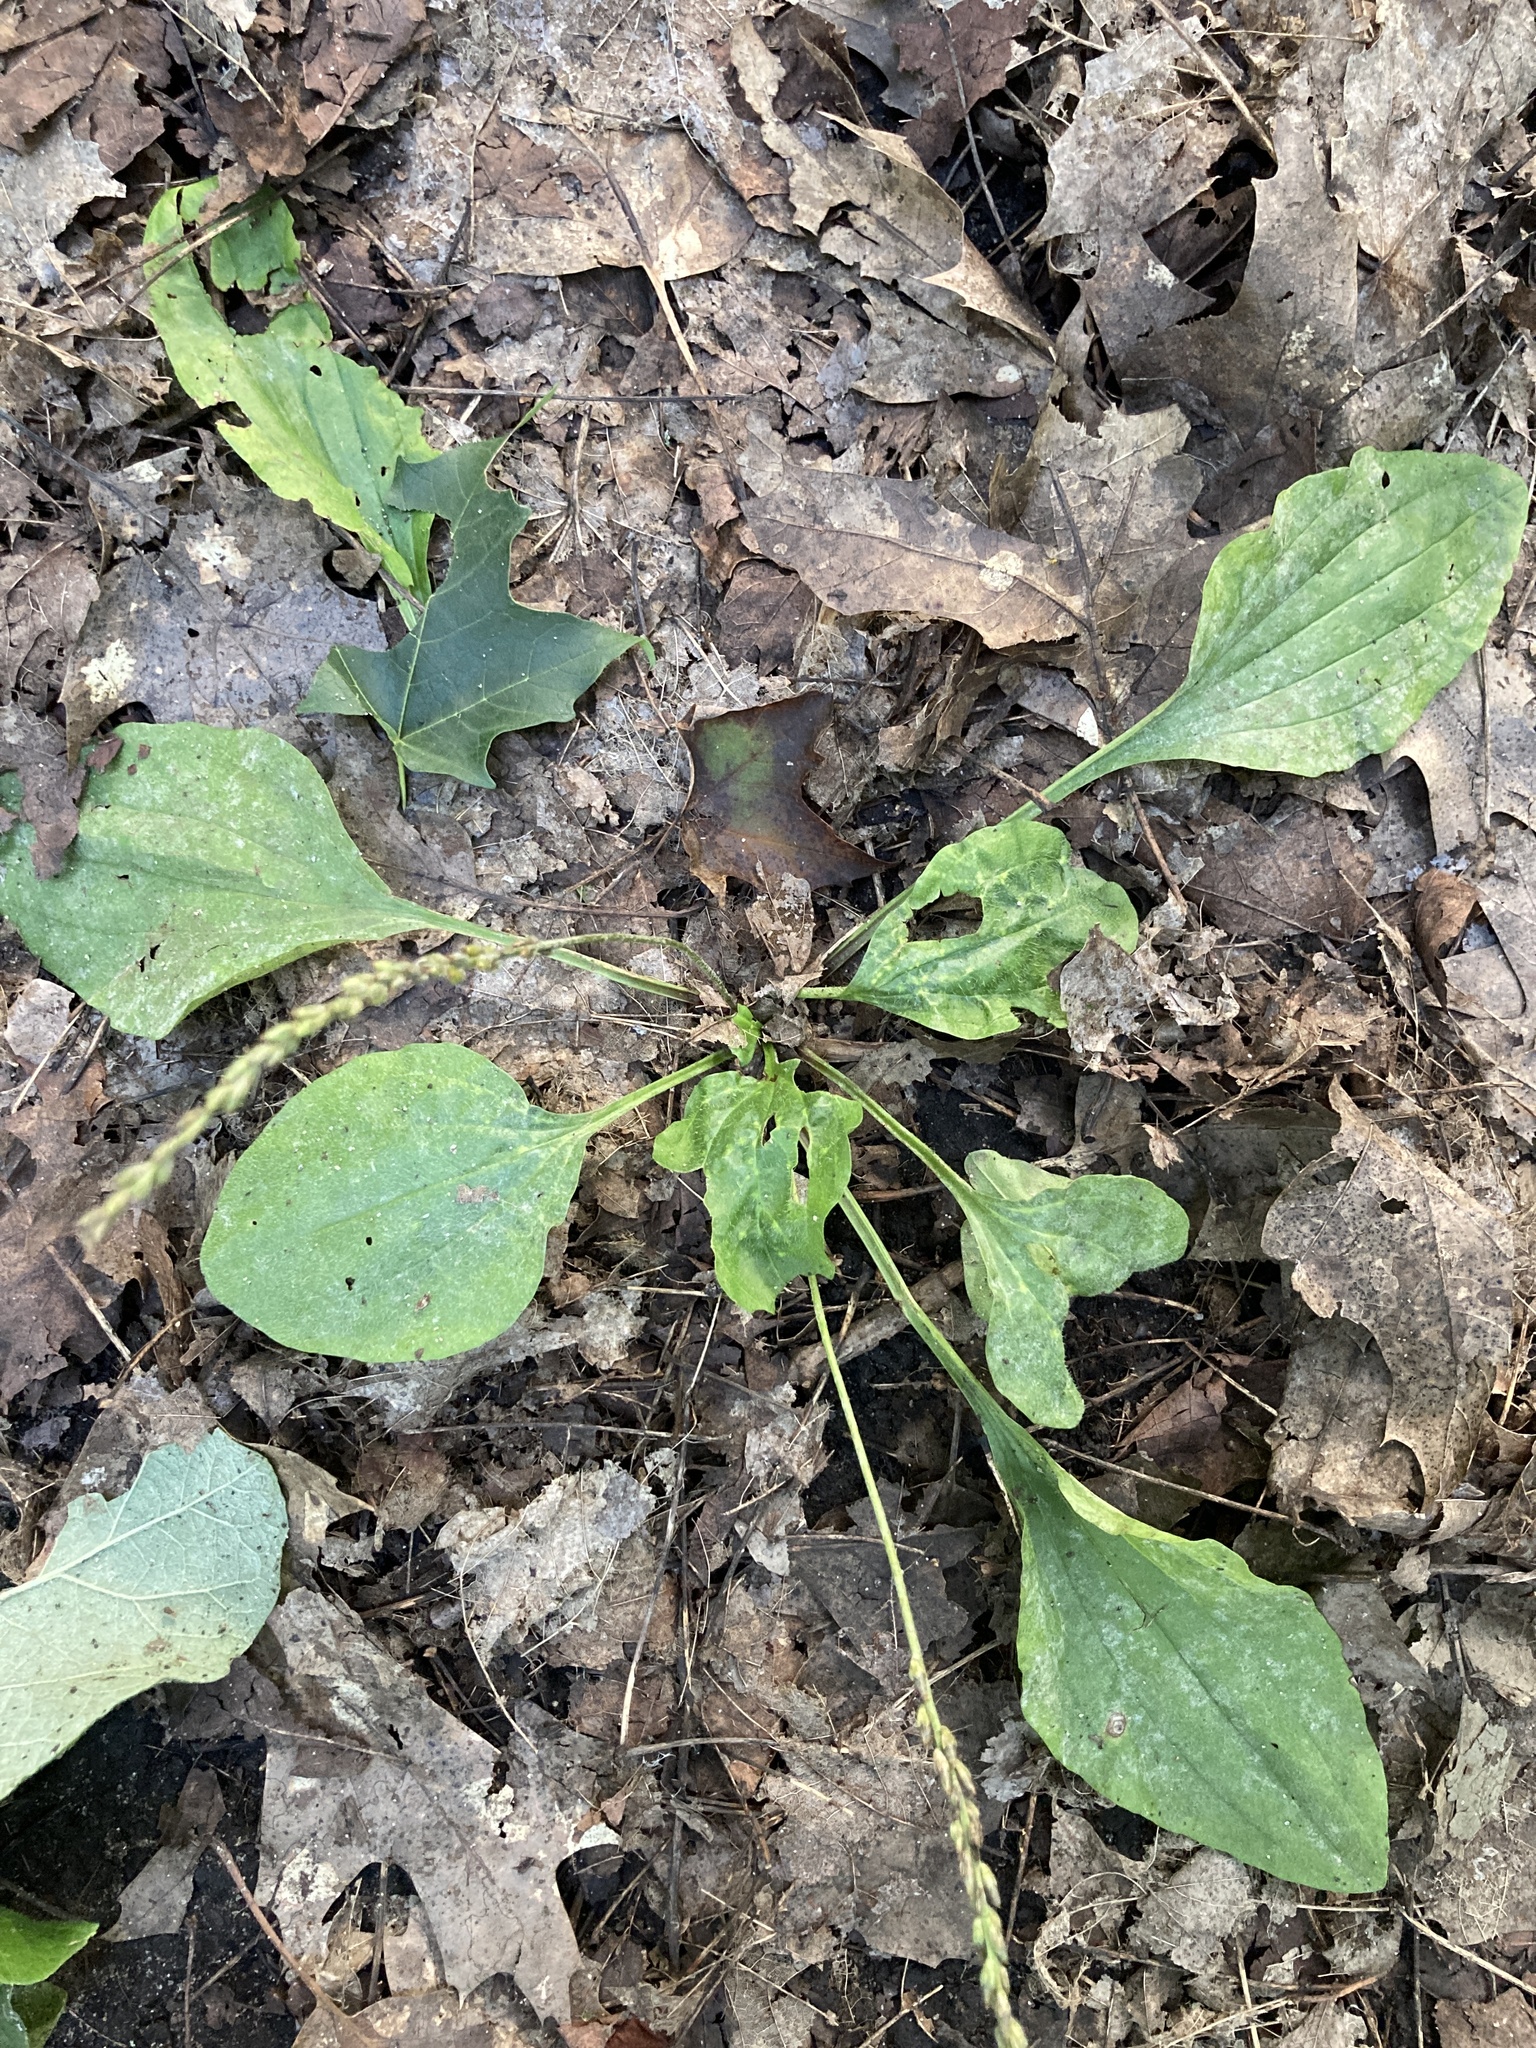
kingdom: Plantae
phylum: Tracheophyta
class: Magnoliopsida
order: Lamiales
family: Plantaginaceae
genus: Plantago
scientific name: Plantago major
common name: Common plantain
